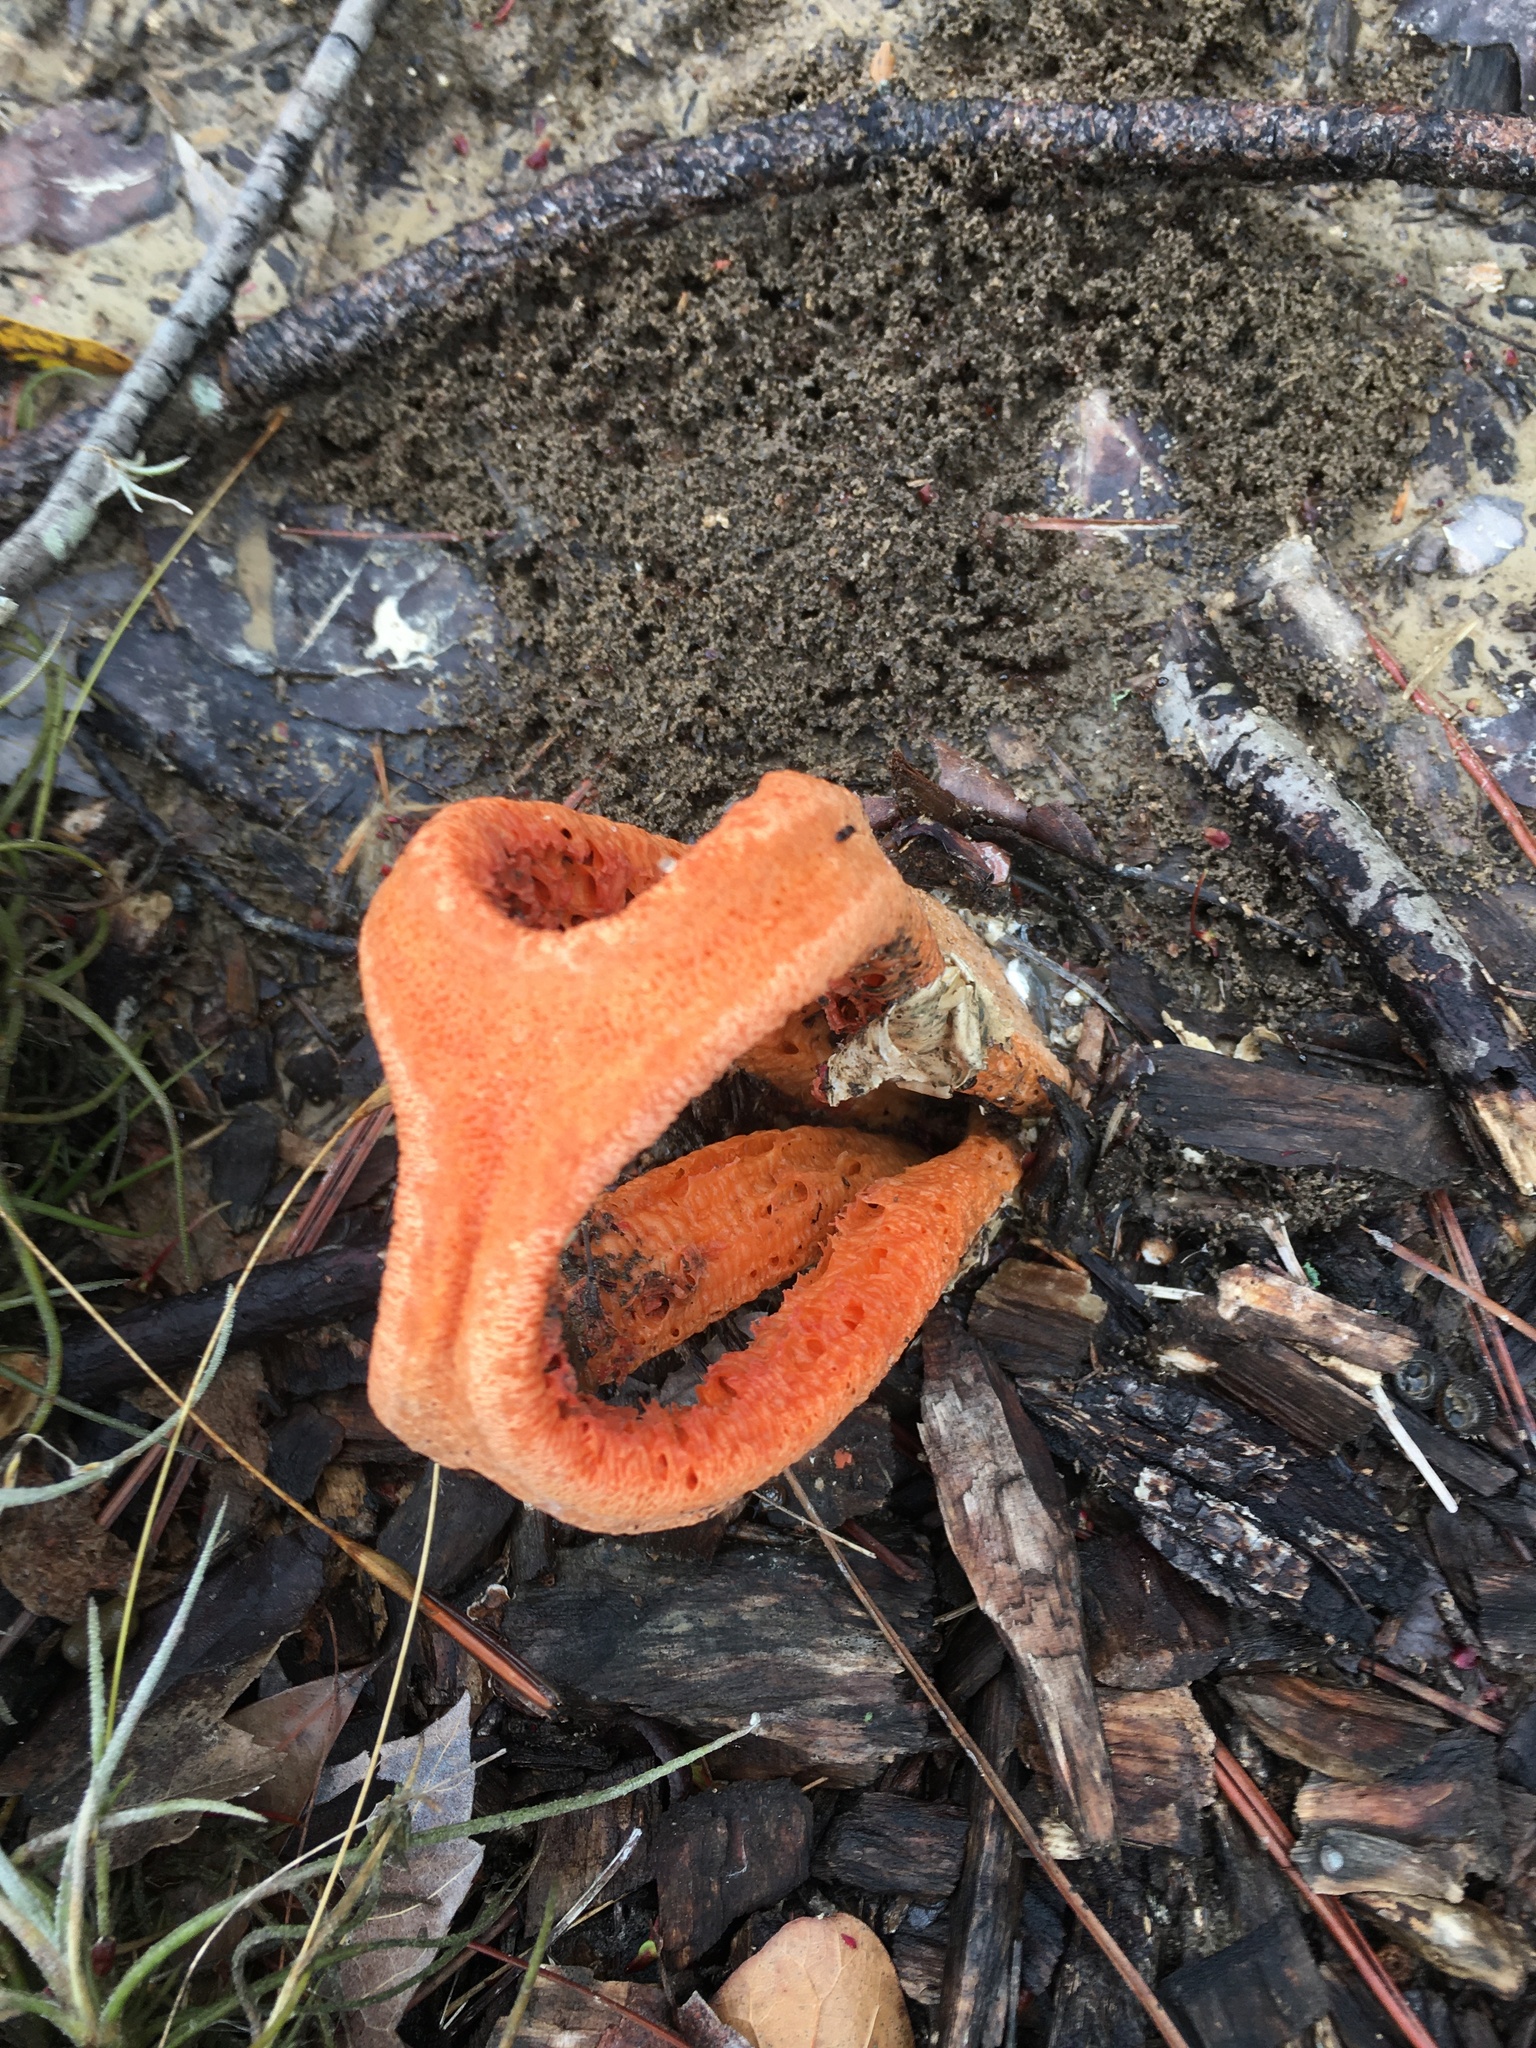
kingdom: Fungi
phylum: Basidiomycota
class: Agaricomycetes
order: Phallales
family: Phallaceae
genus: Clathrus
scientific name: Clathrus columnatus
